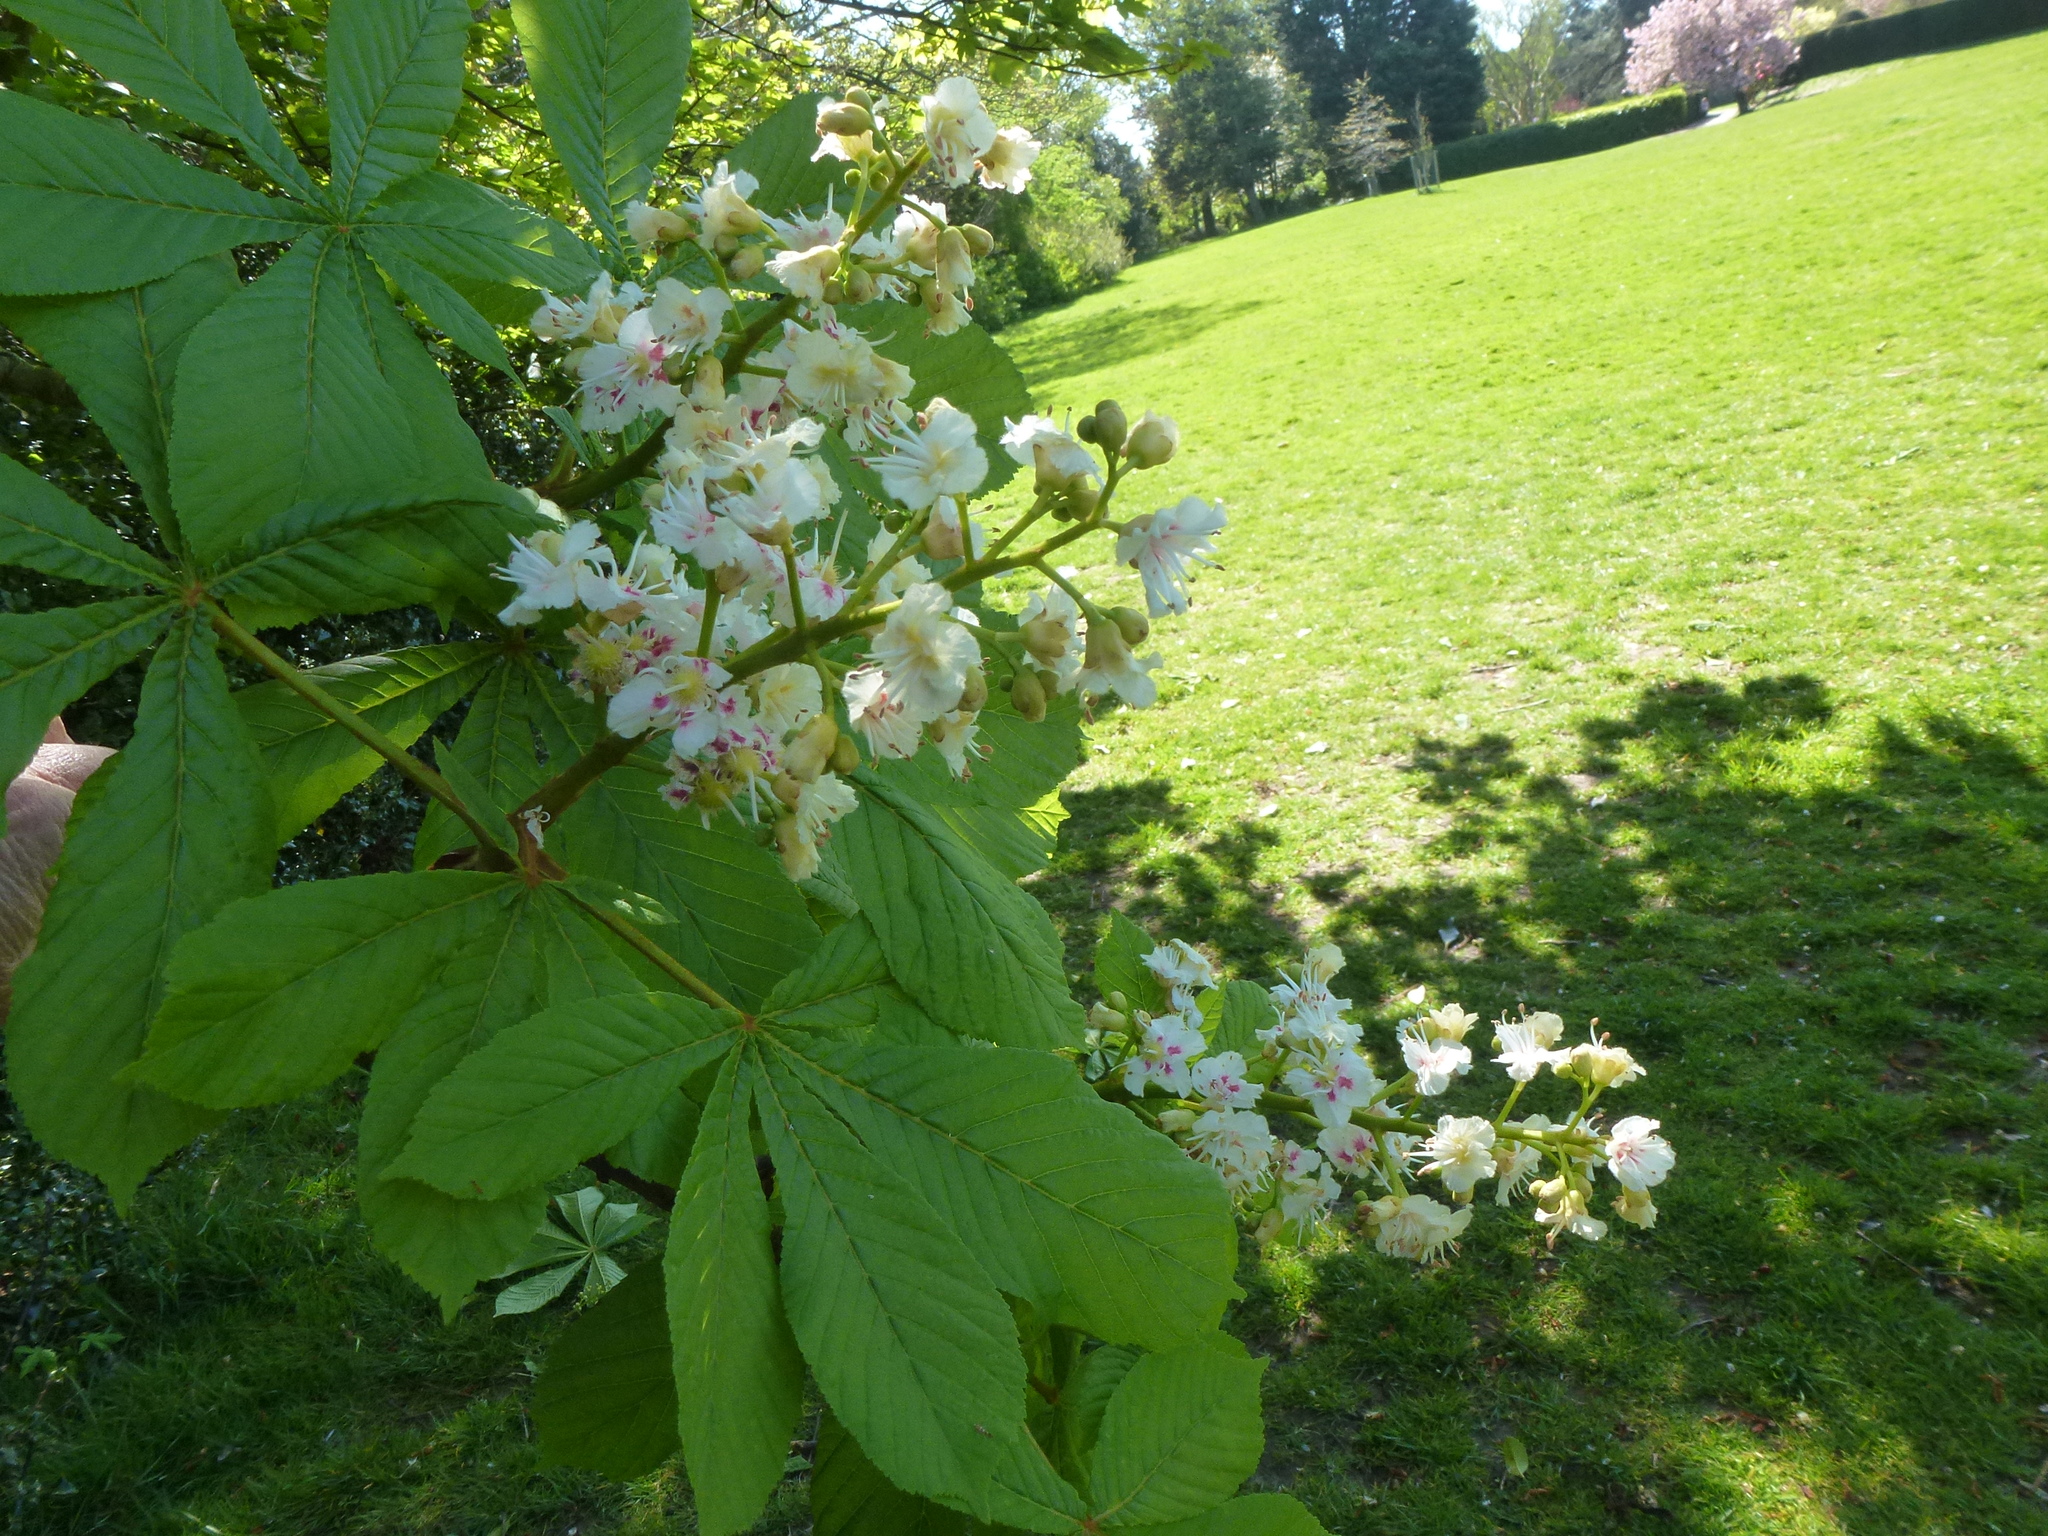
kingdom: Plantae
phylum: Tracheophyta
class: Magnoliopsida
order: Sapindales
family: Sapindaceae
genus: Aesculus
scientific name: Aesculus hippocastanum
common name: Horse-chestnut
